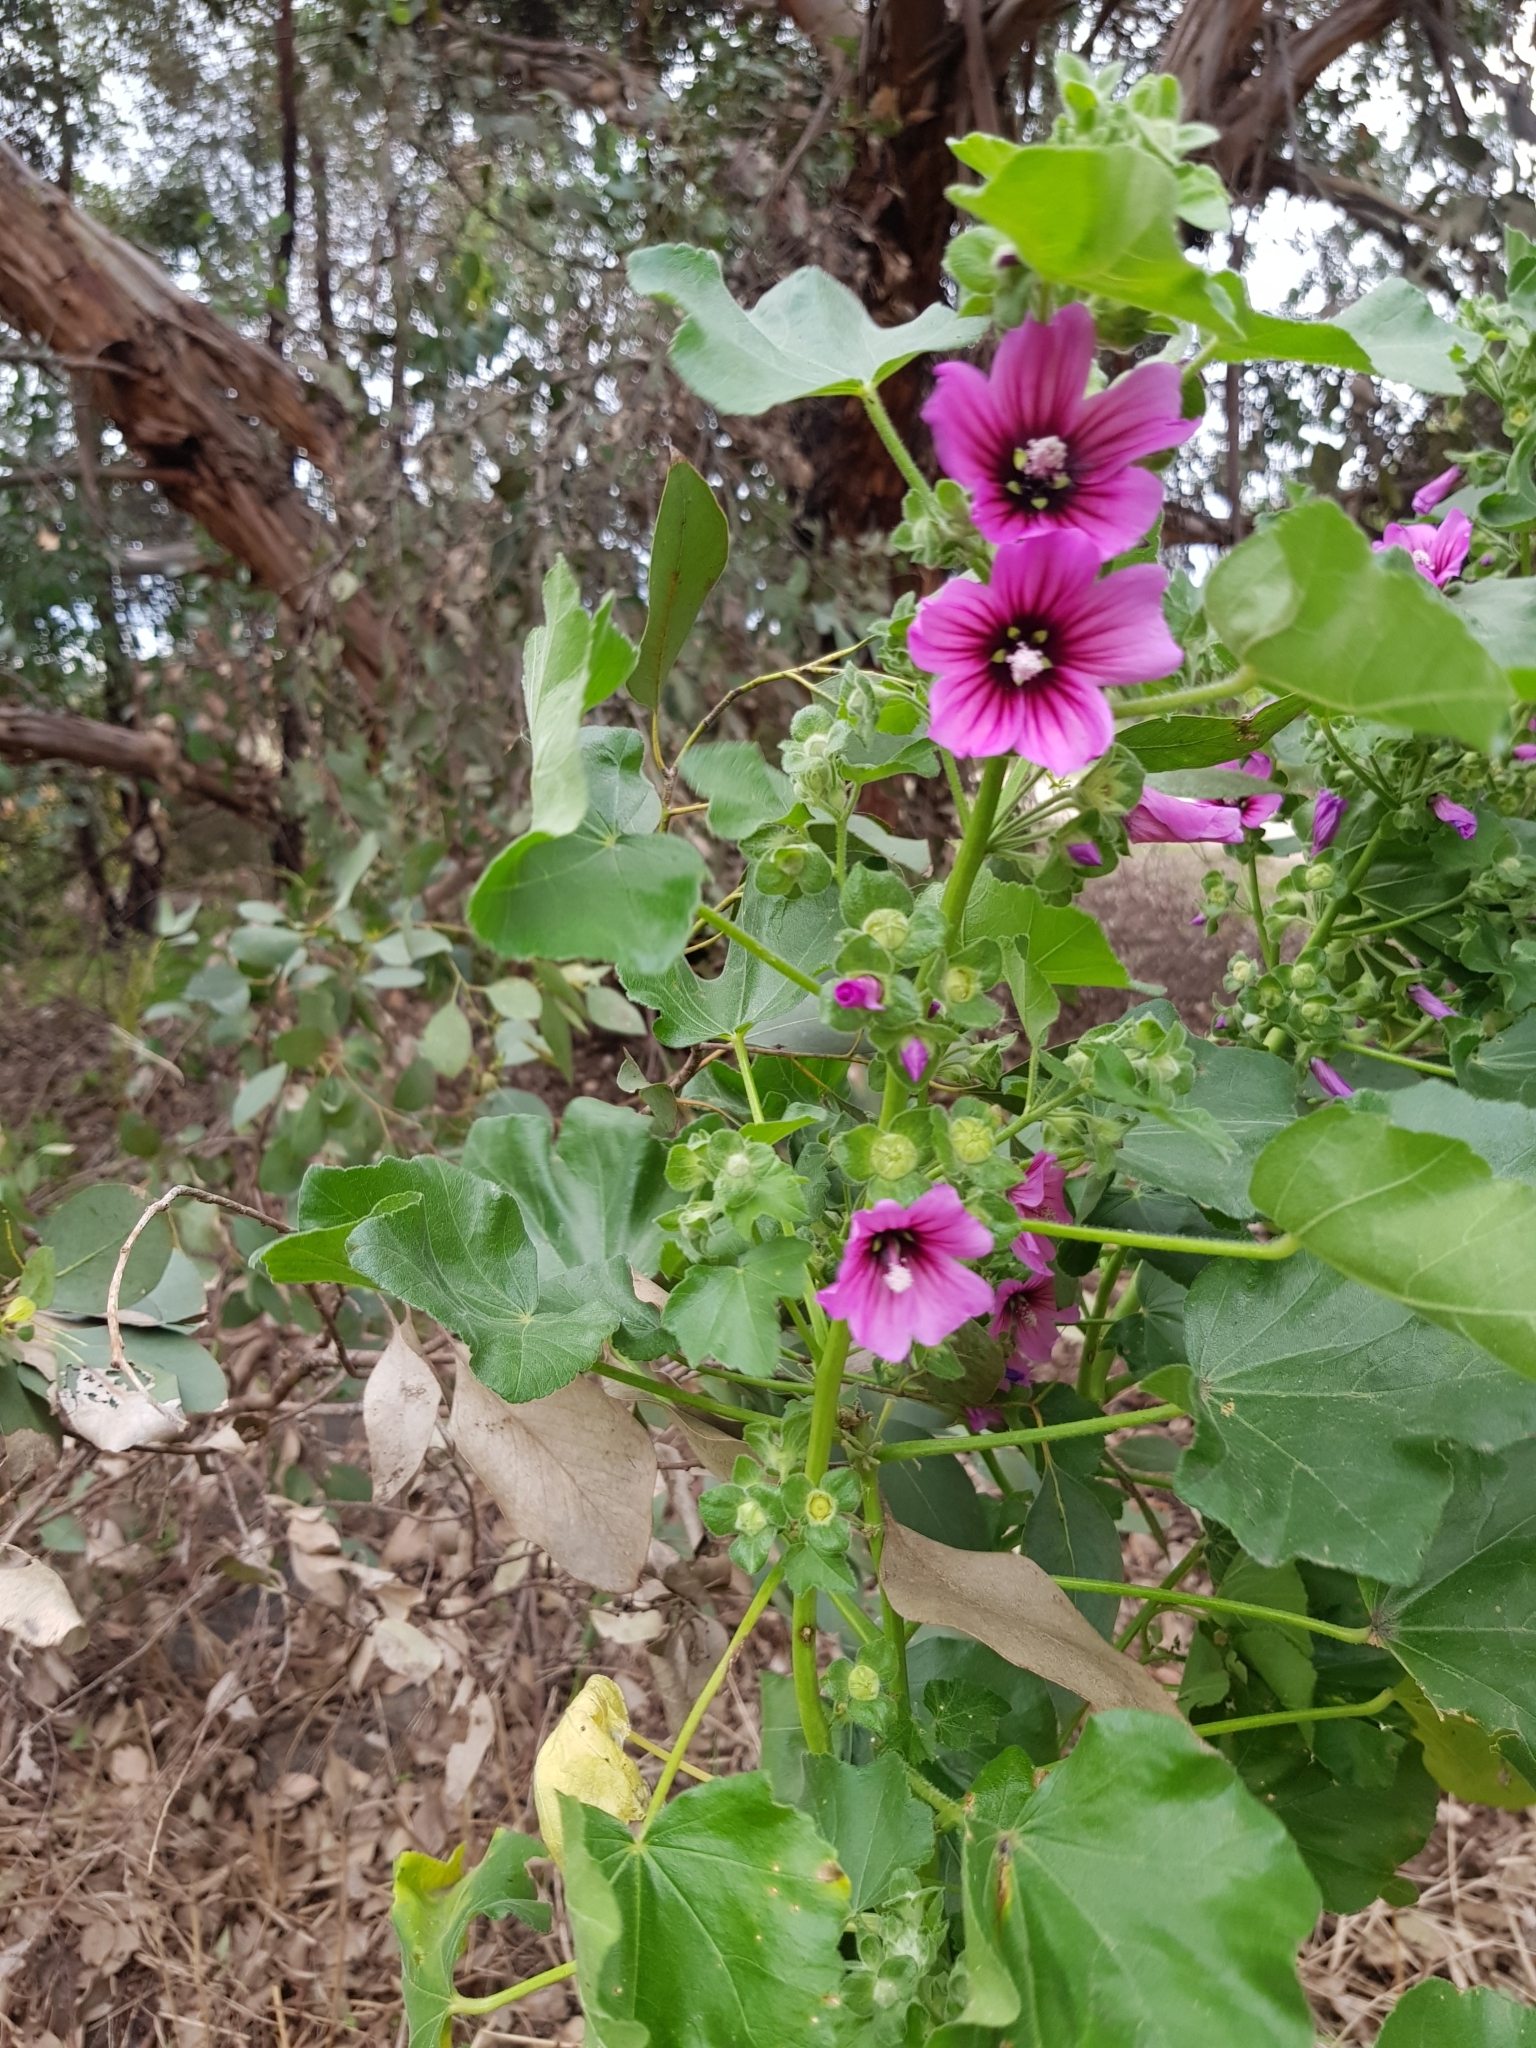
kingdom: Plantae
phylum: Tracheophyta
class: Magnoliopsida
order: Malvales
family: Malvaceae
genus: Malva
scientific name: Malva arborea
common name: Tree mallow
